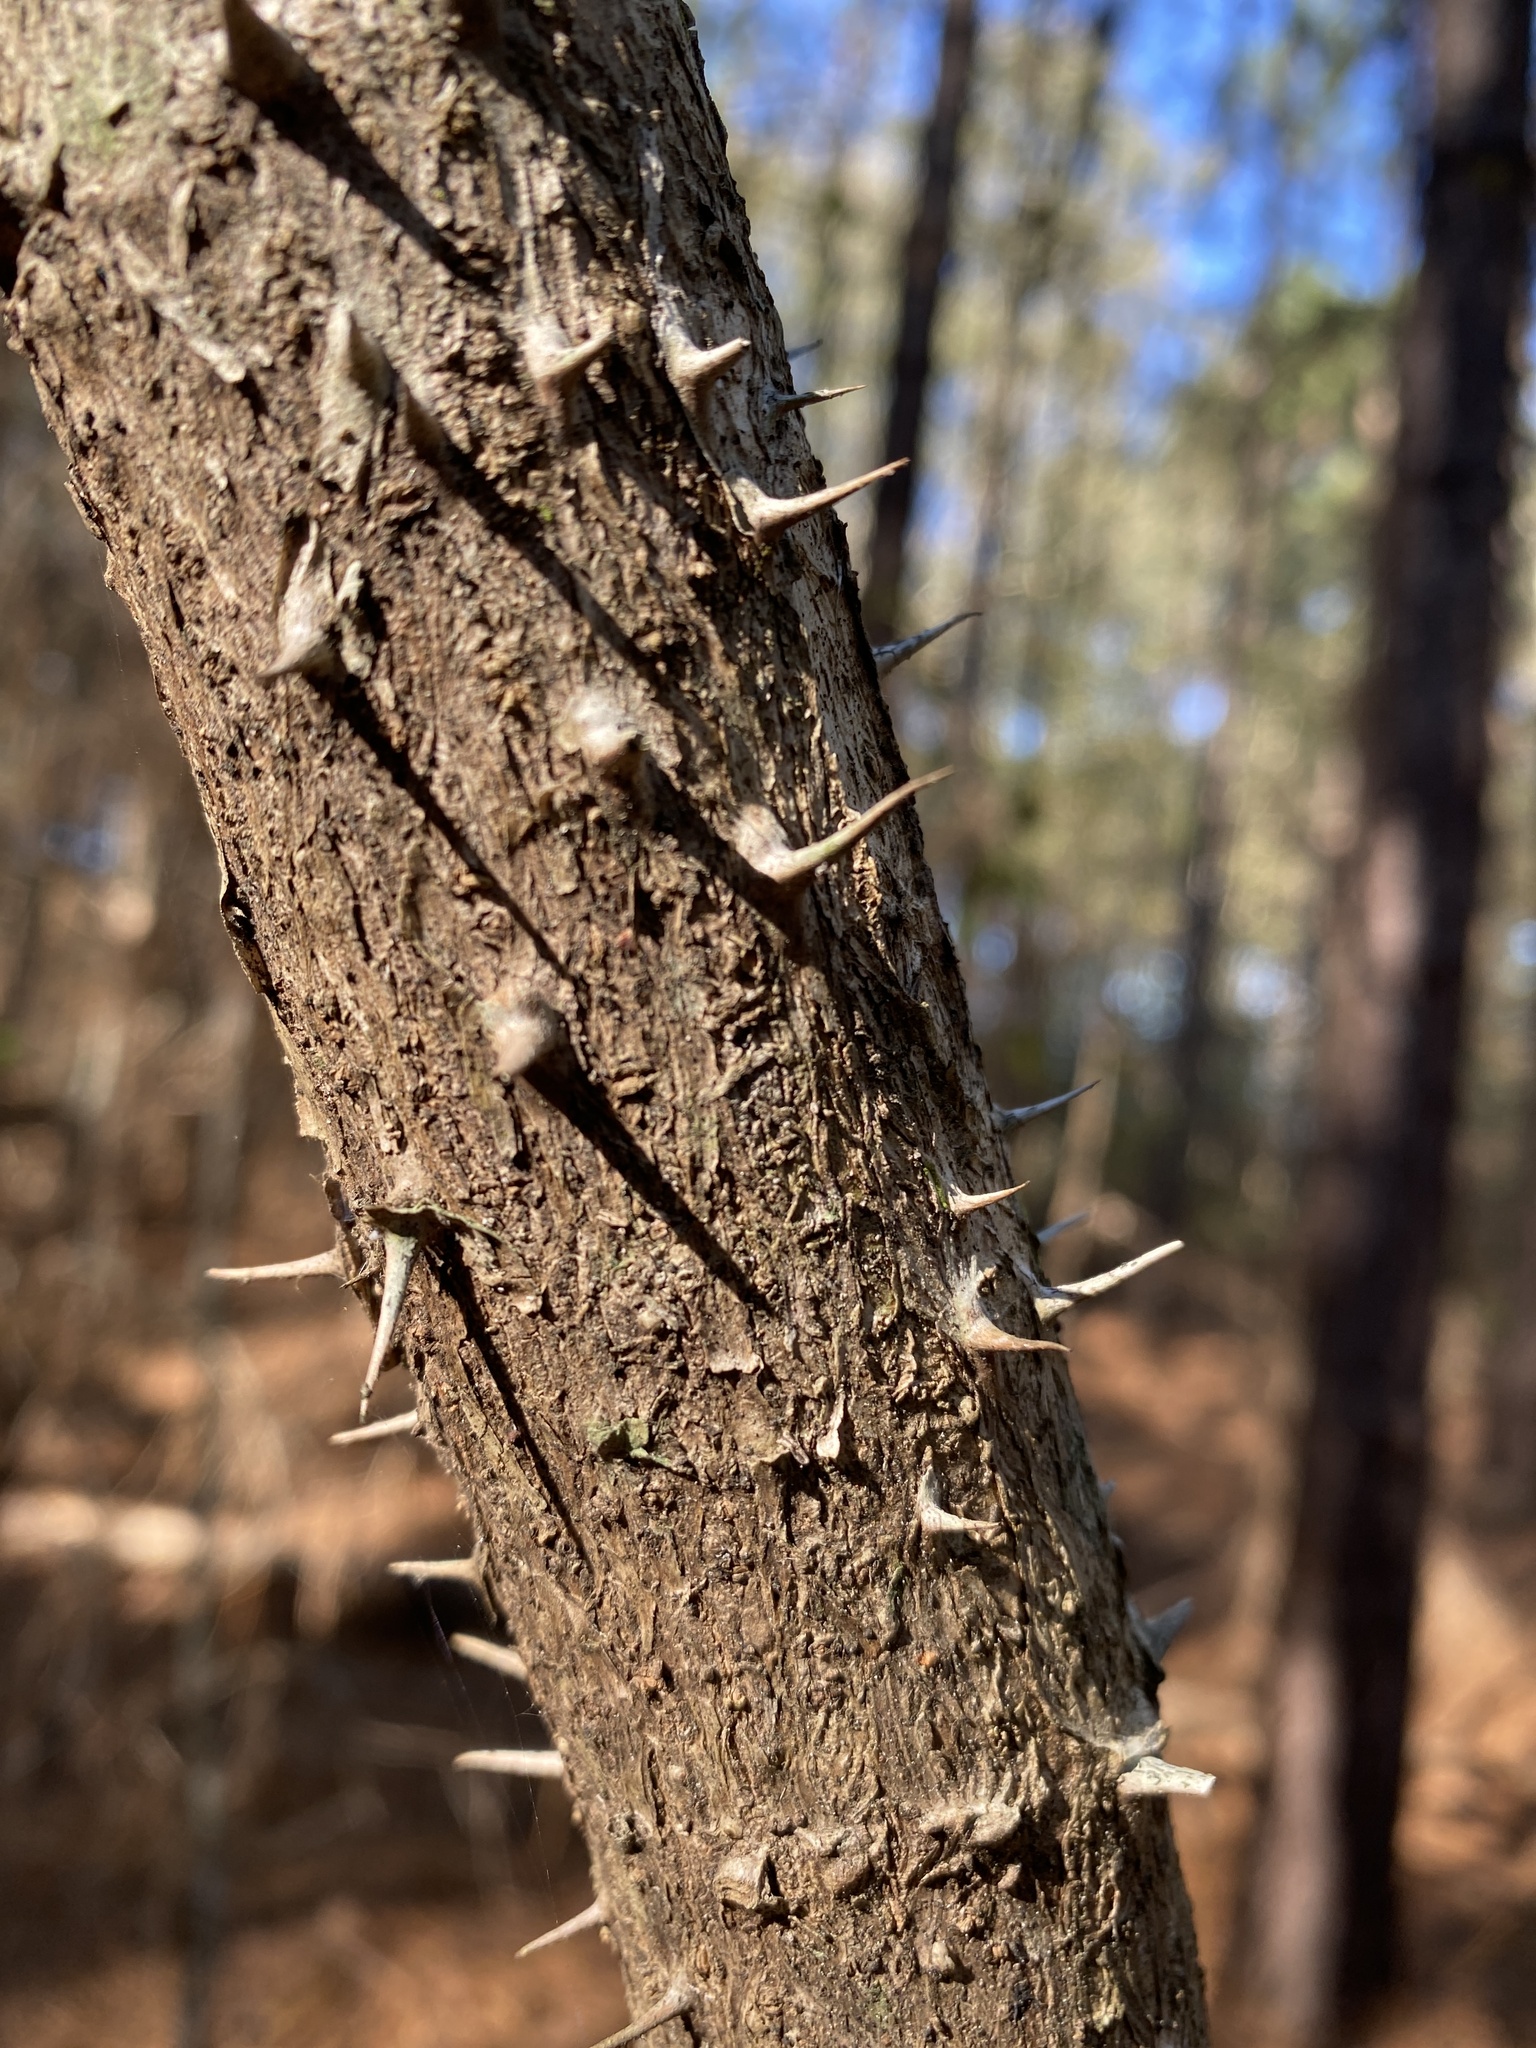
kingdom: Plantae
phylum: Tracheophyta
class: Magnoliopsida
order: Apiales
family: Araliaceae
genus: Aralia
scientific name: Aralia spinosa
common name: Hercules'-club
